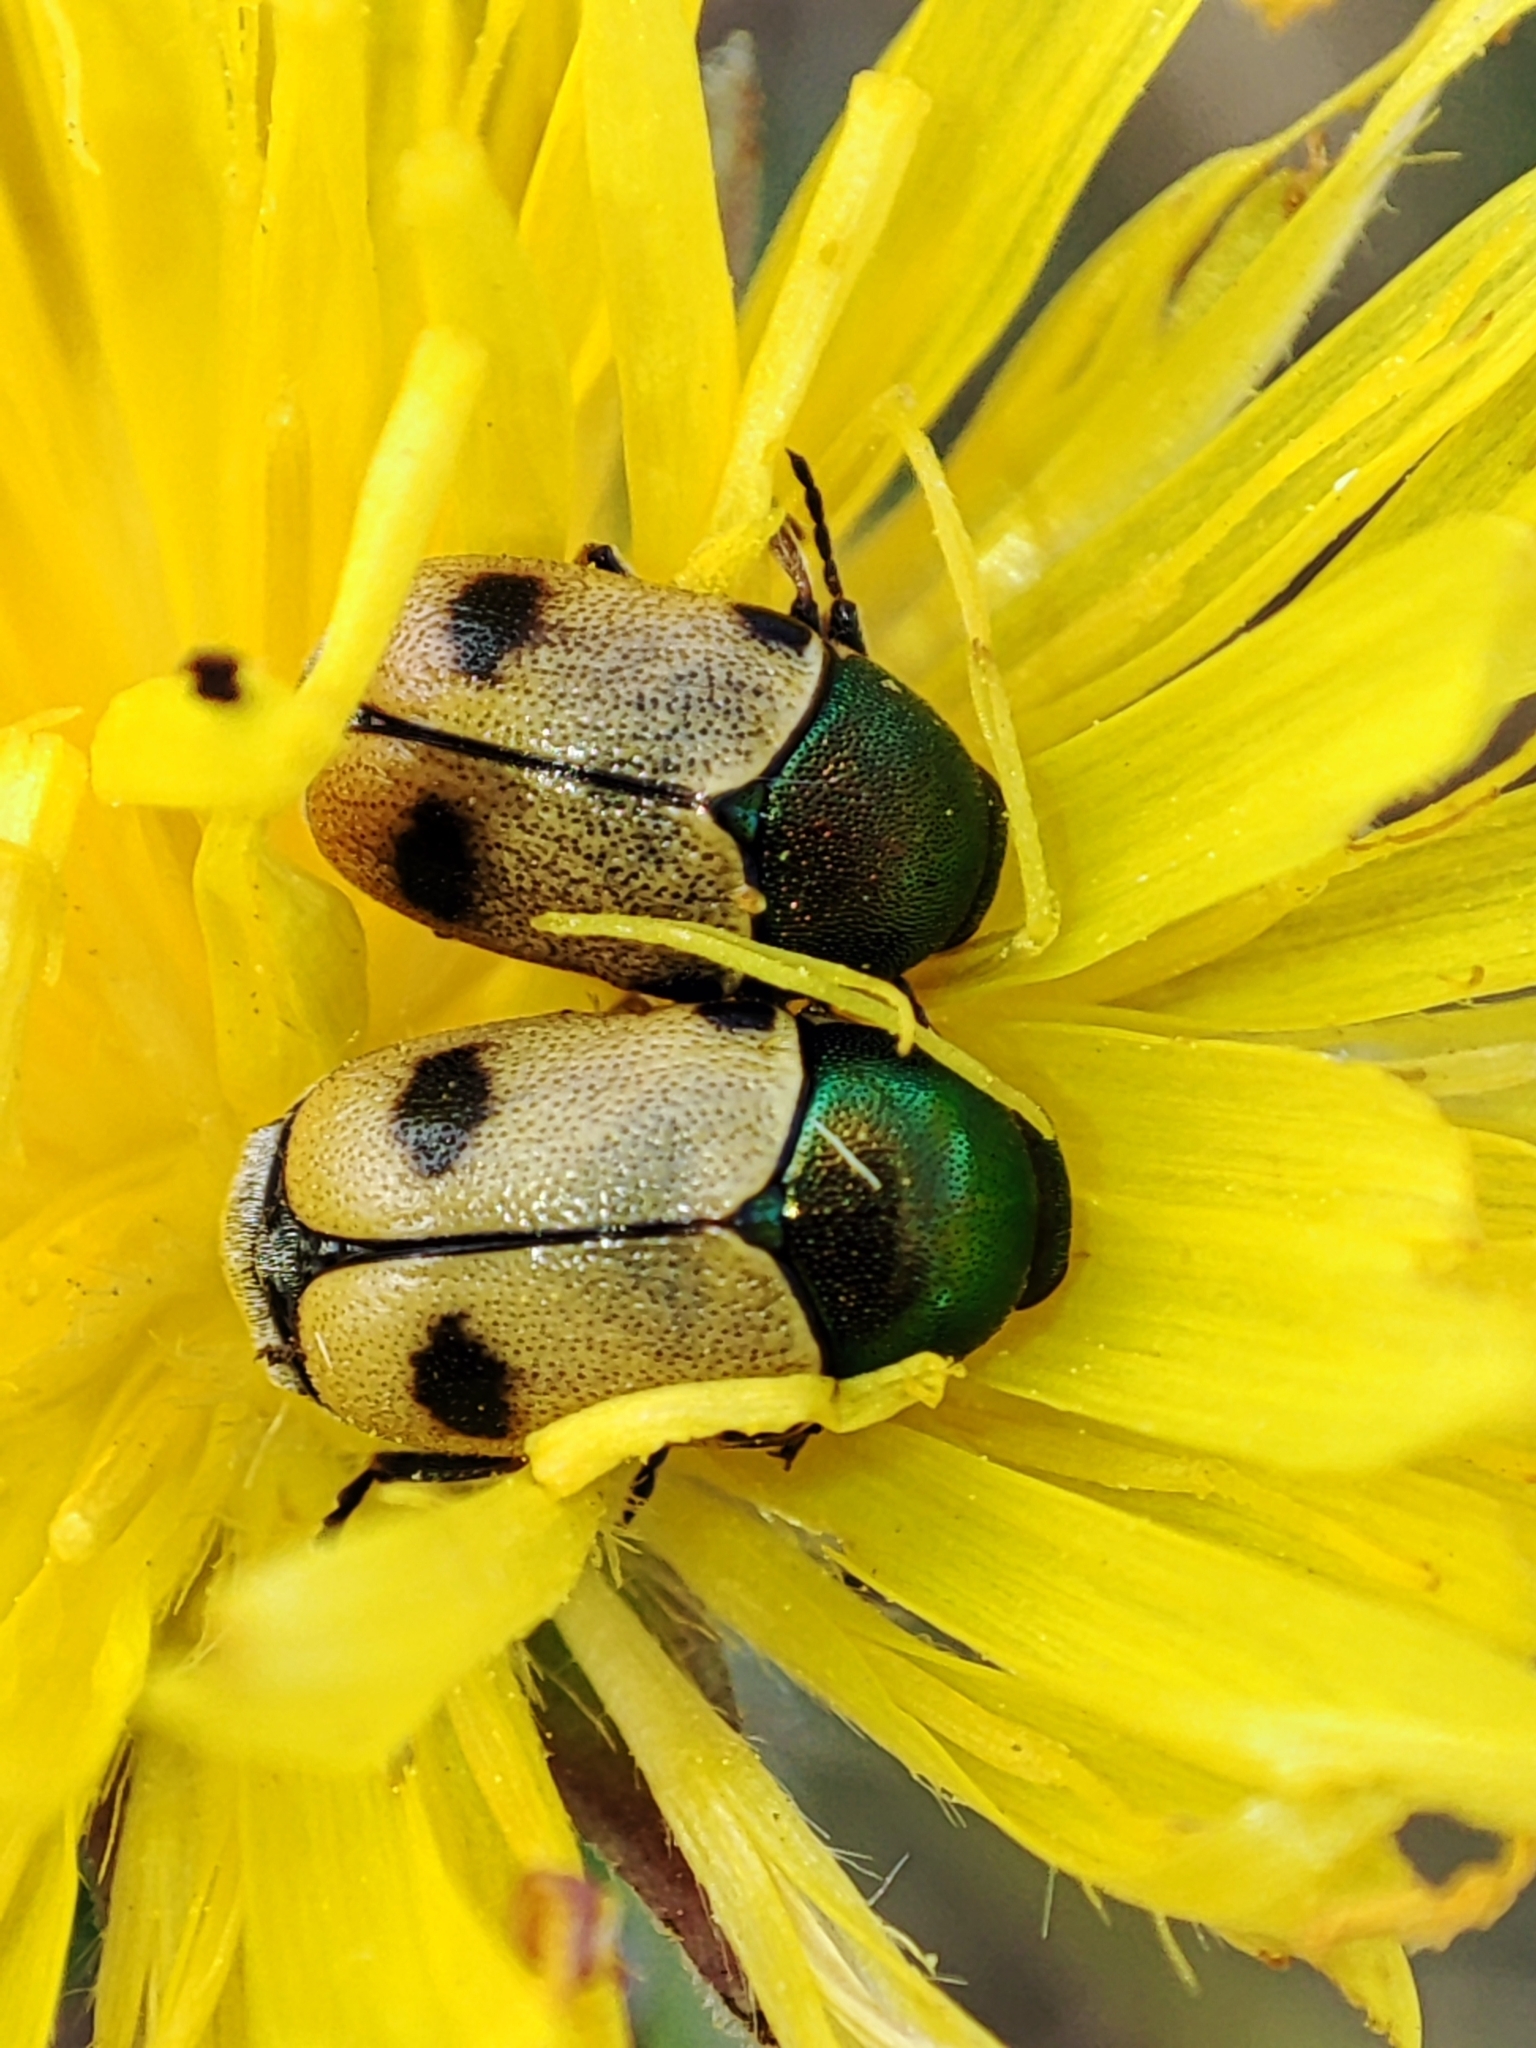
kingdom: Animalia
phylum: Arthropoda
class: Insecta
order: Coleoptera
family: Chrysomelidae
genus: Cryptocephalus
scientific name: Cryptocephalus laetus
